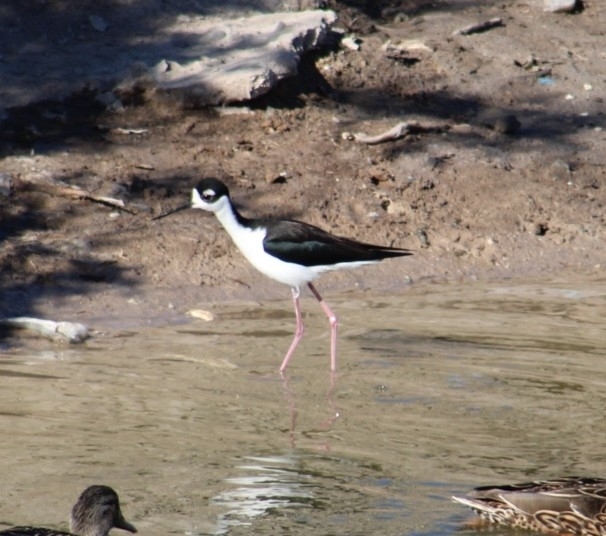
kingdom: Animalia
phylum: Chordata
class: Aves
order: Charadriiformes
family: Recurvirostridae
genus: Himantopus
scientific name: Himantopus mexicanus
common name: Black-necked stilt
